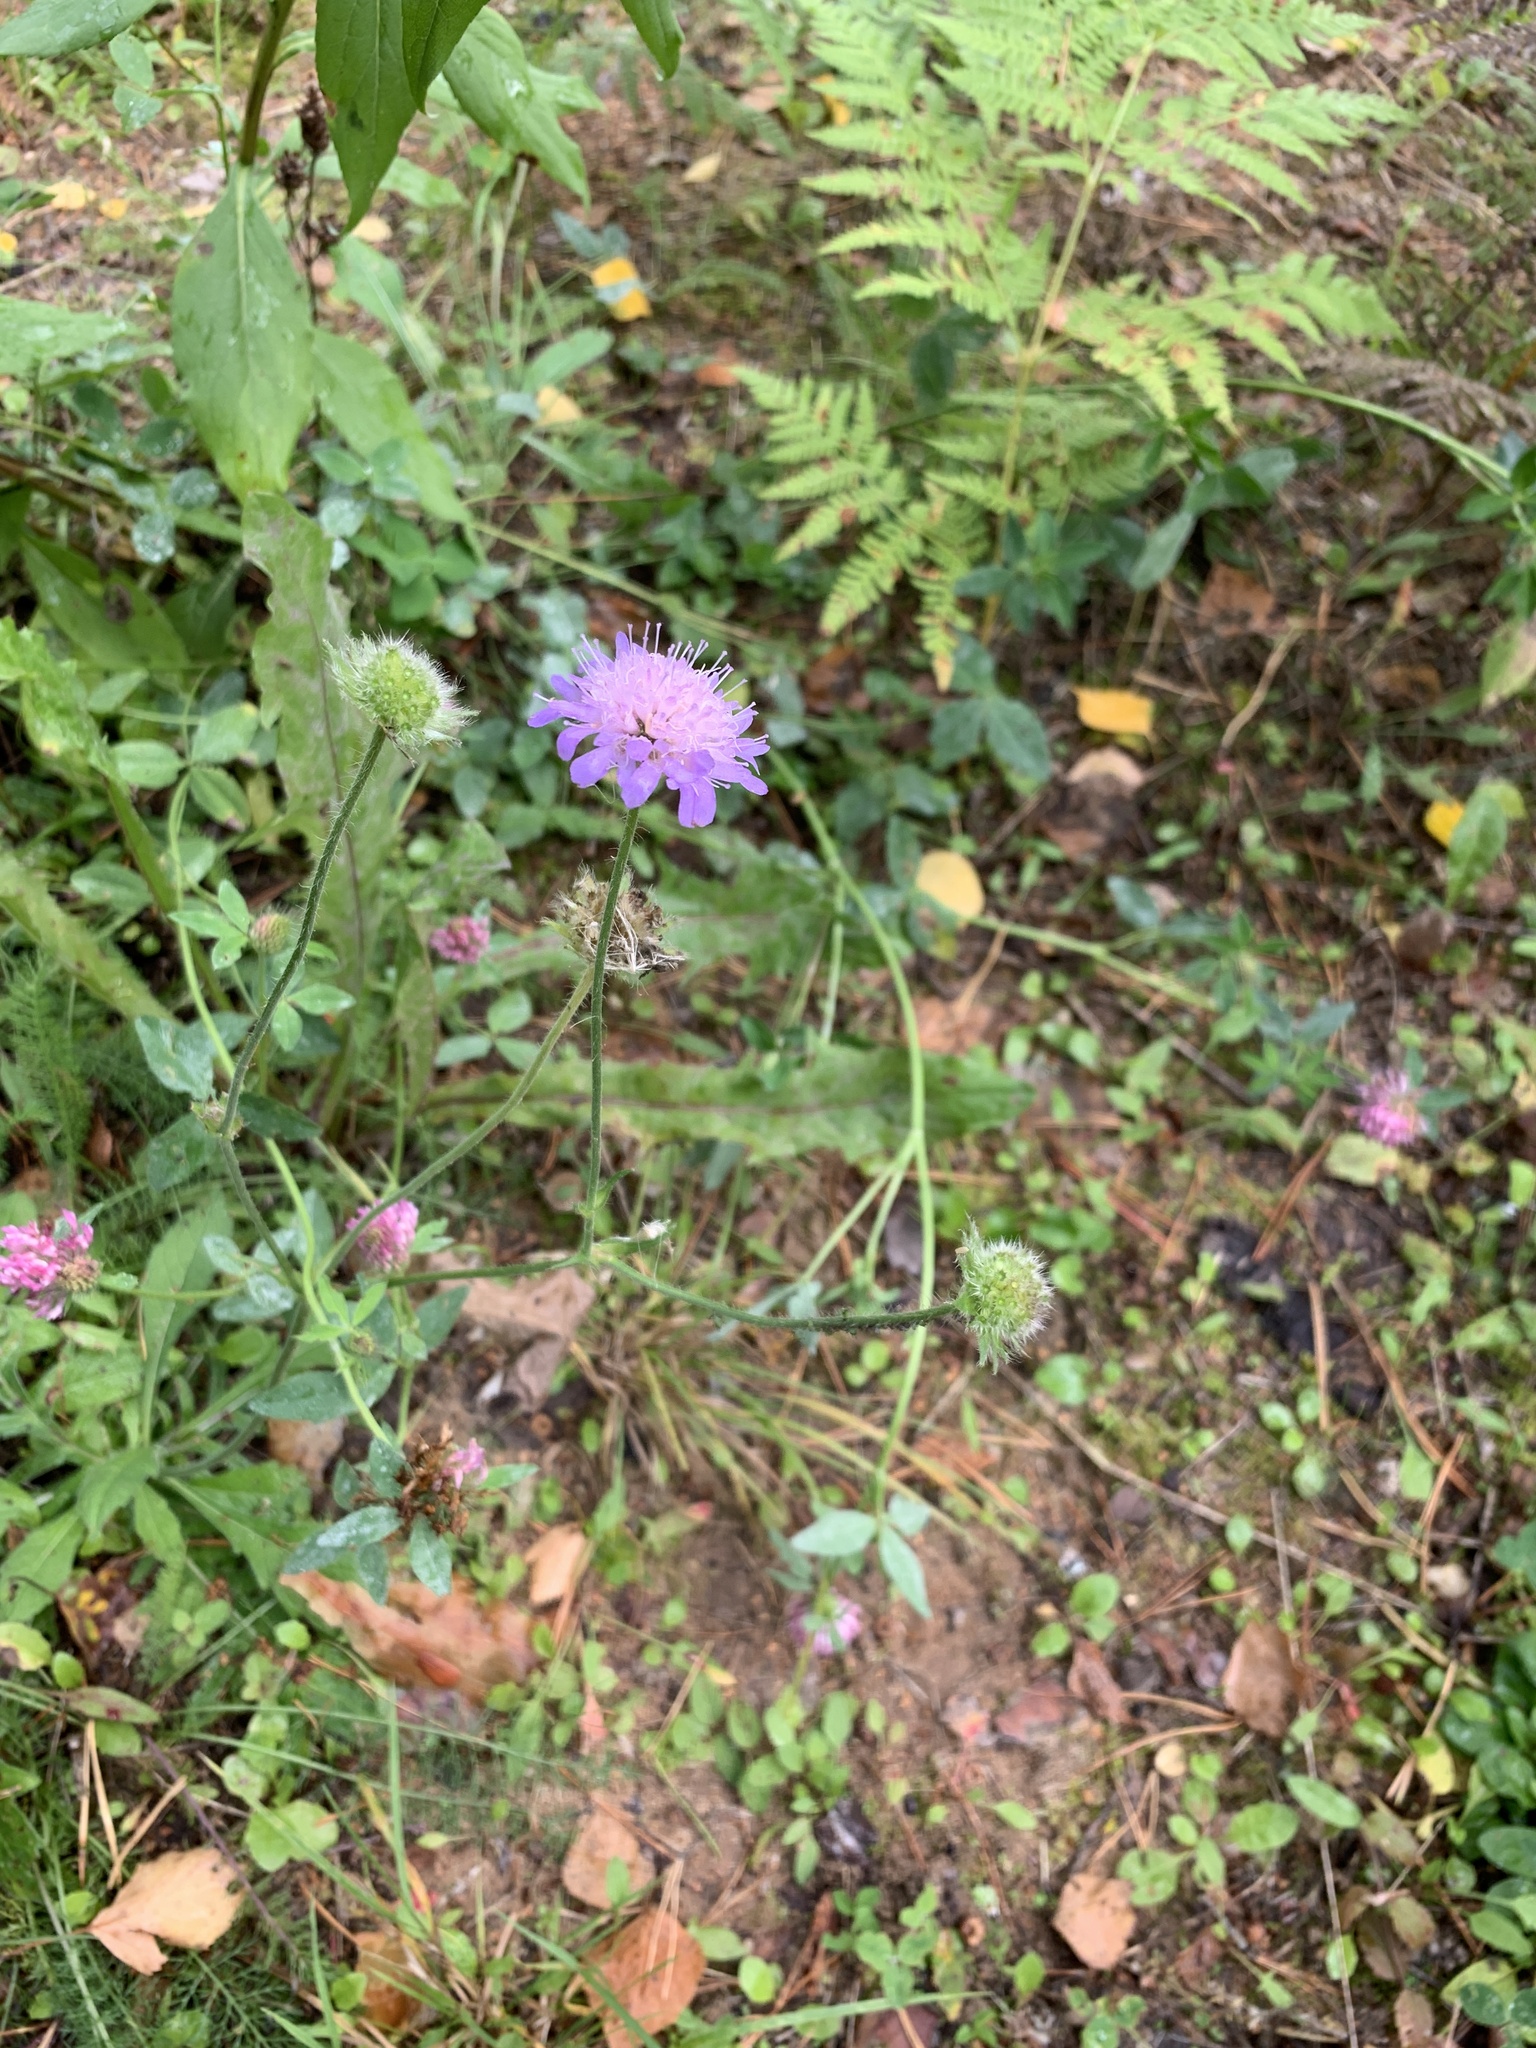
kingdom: Plantae
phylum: Tracheophyta
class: Magnoliopsida
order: Dipsacales
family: Caprifoliaceae
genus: Knautia
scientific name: Knautia arvensis
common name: Field scabiosa
